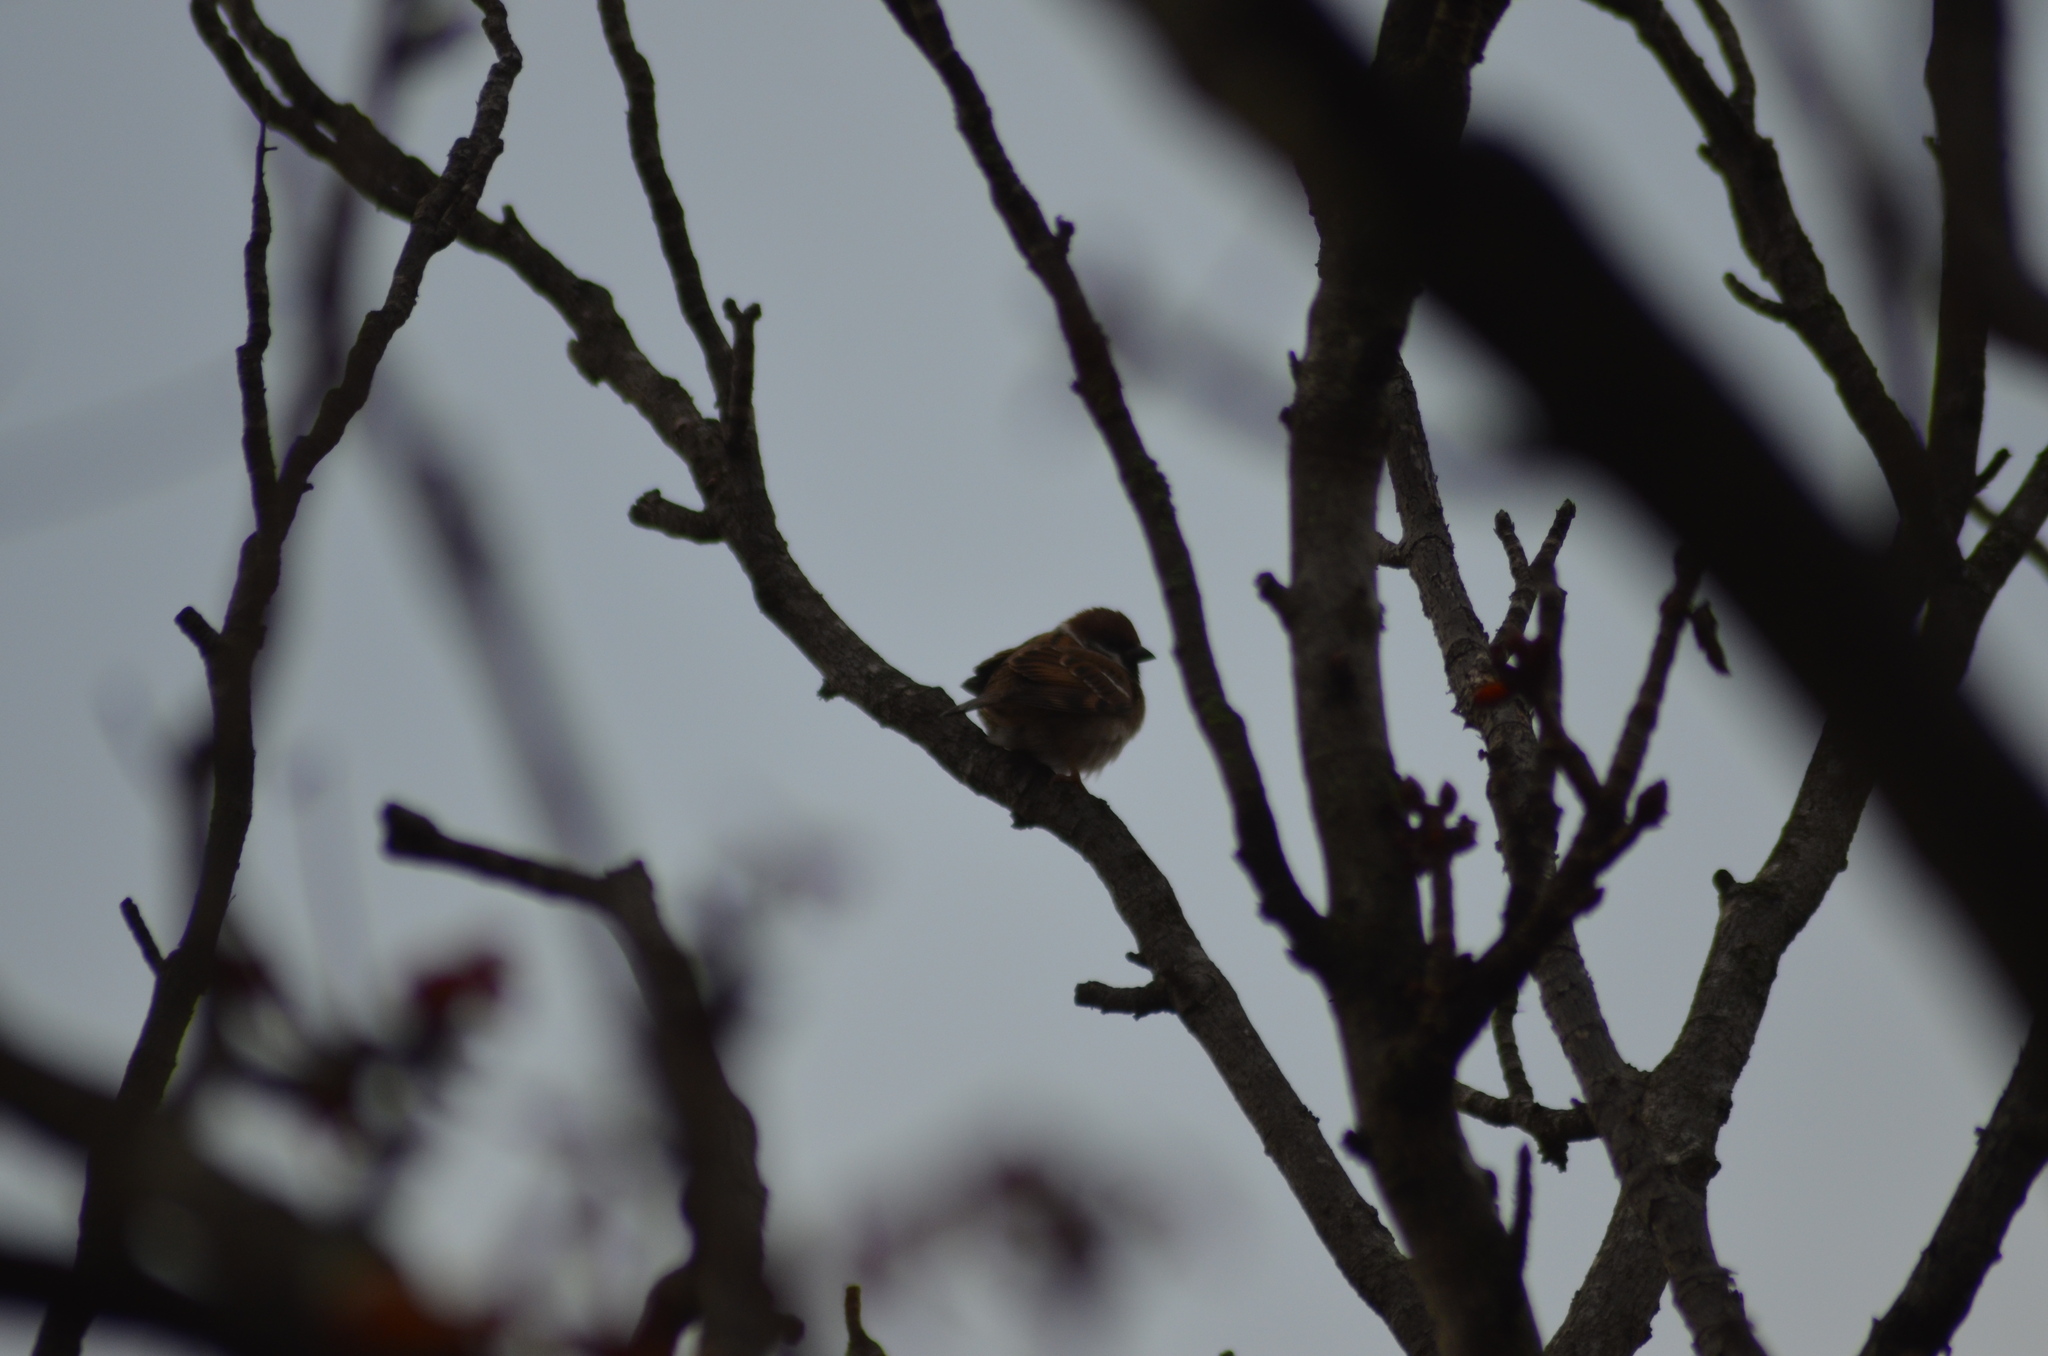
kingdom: Animalia
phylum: Chordata
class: Aves
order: Passeriformes
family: Passeridae
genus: Passer
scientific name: Passer montanus
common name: Eurasian tree sparrow
